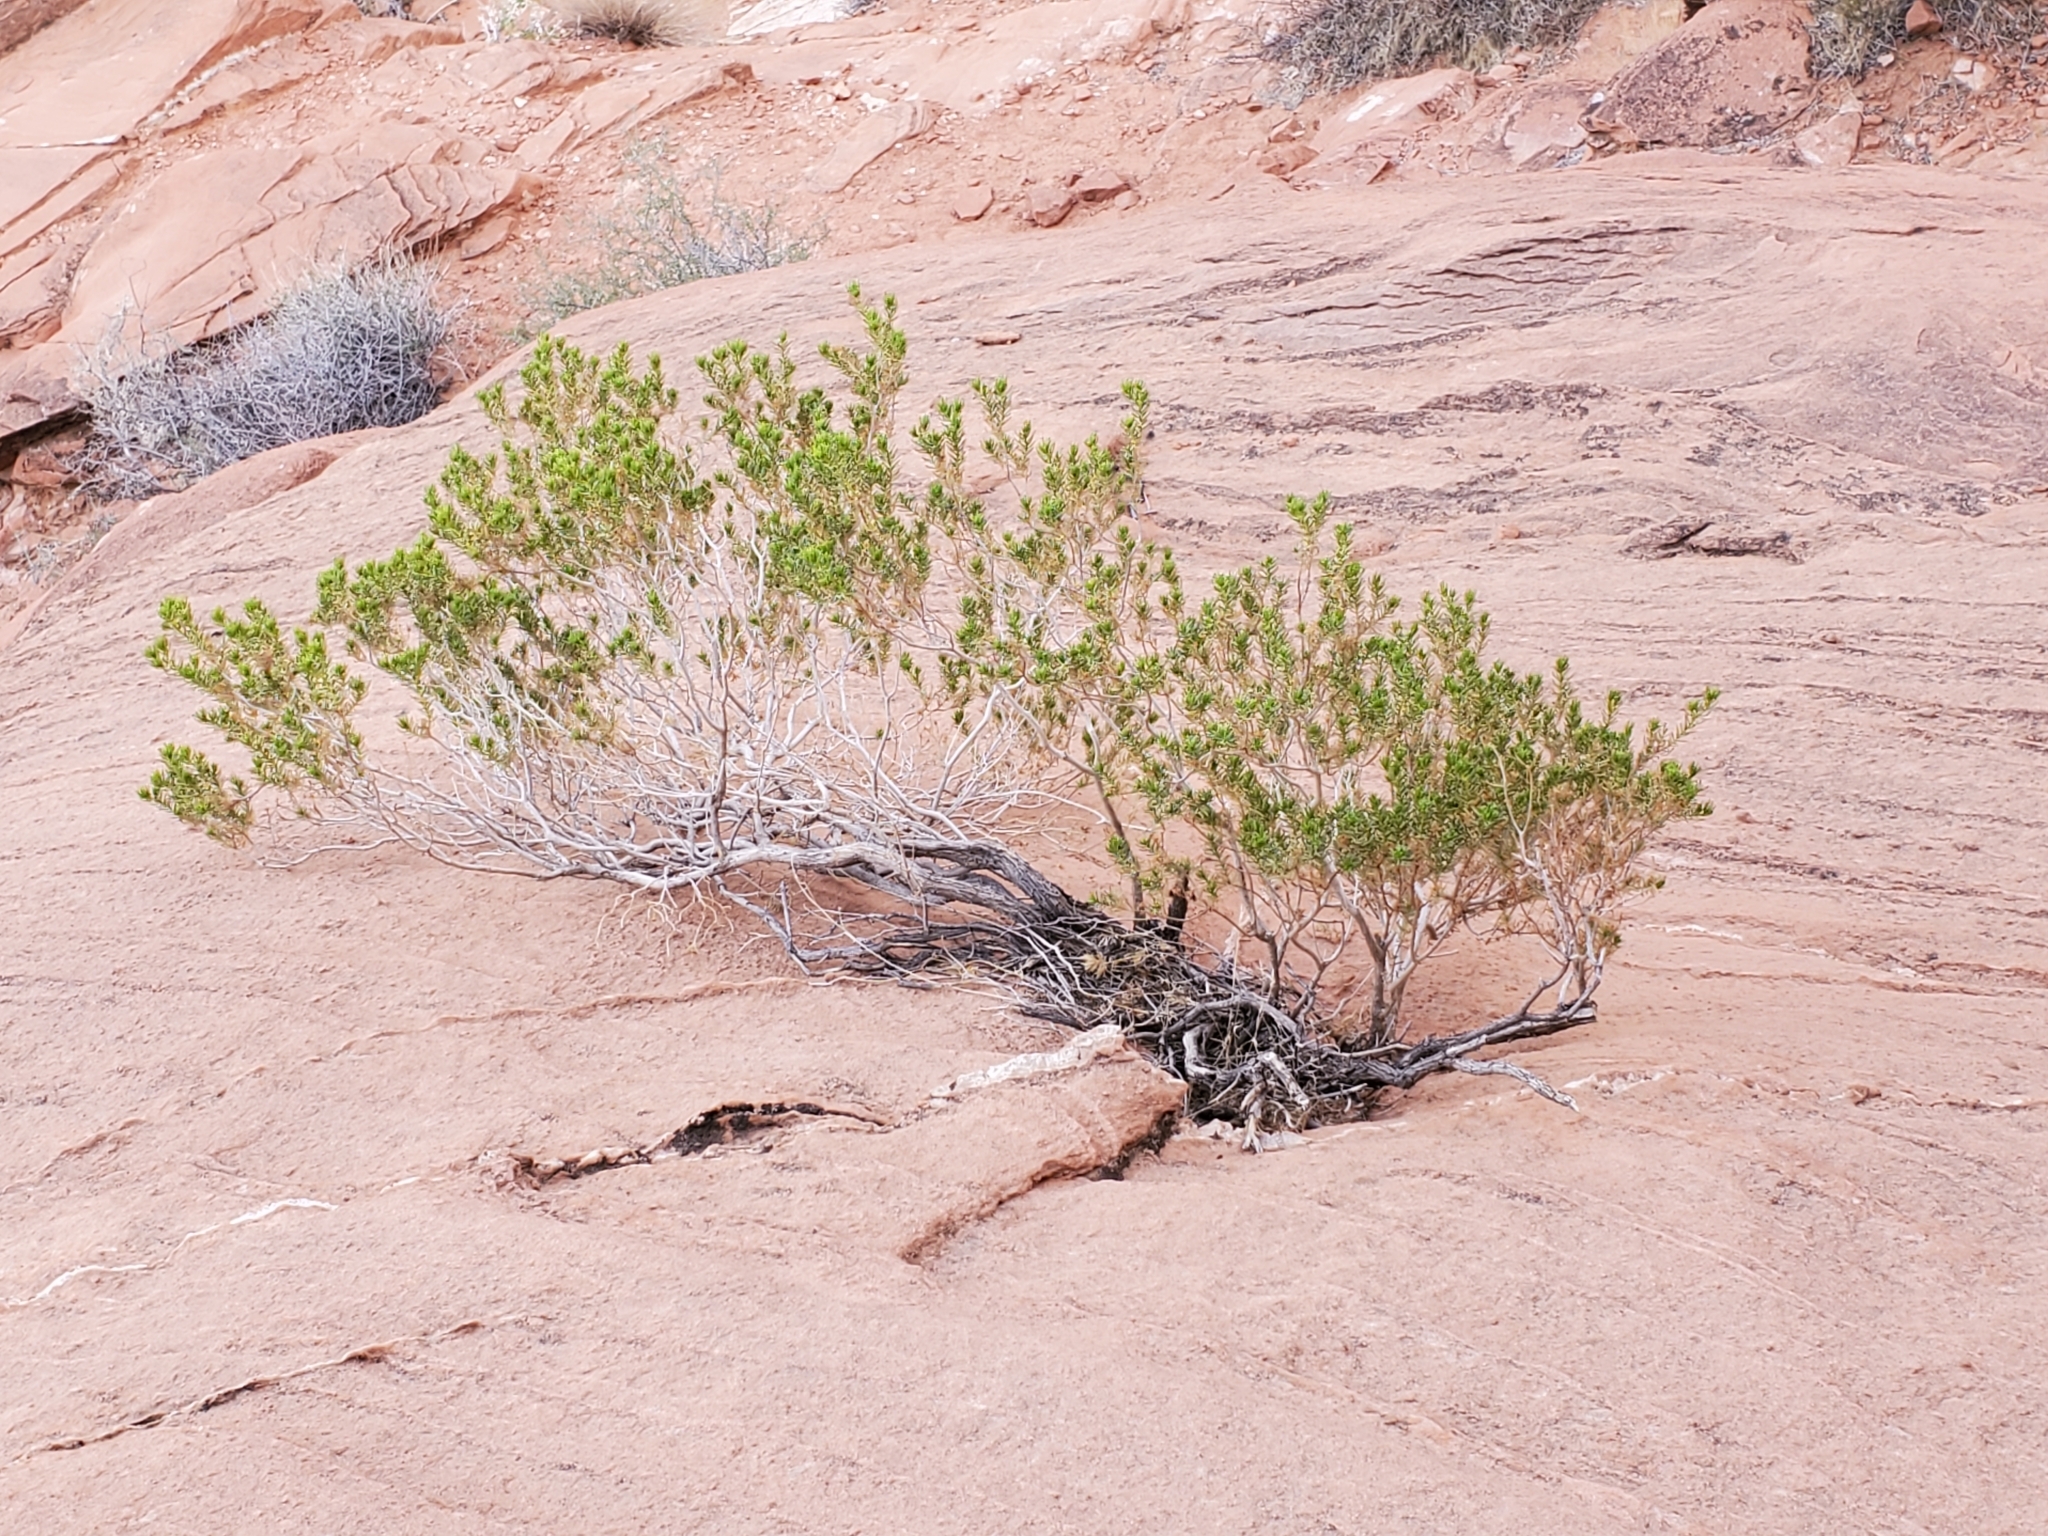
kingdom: Plantae
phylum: Tracheophyta
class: Magnoliopsida
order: Asterales
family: Asteraceae
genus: Peucephyllum
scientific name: Peucephyllum schottii
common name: Pygmy-cedar
